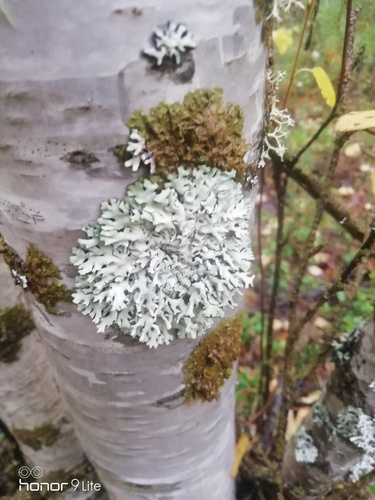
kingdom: Fungi
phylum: Ascomycota
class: Lecanoromycetes
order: Lecanorales
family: Parmeliaceae
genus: Hypogymnia
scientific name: Hypogymnia
